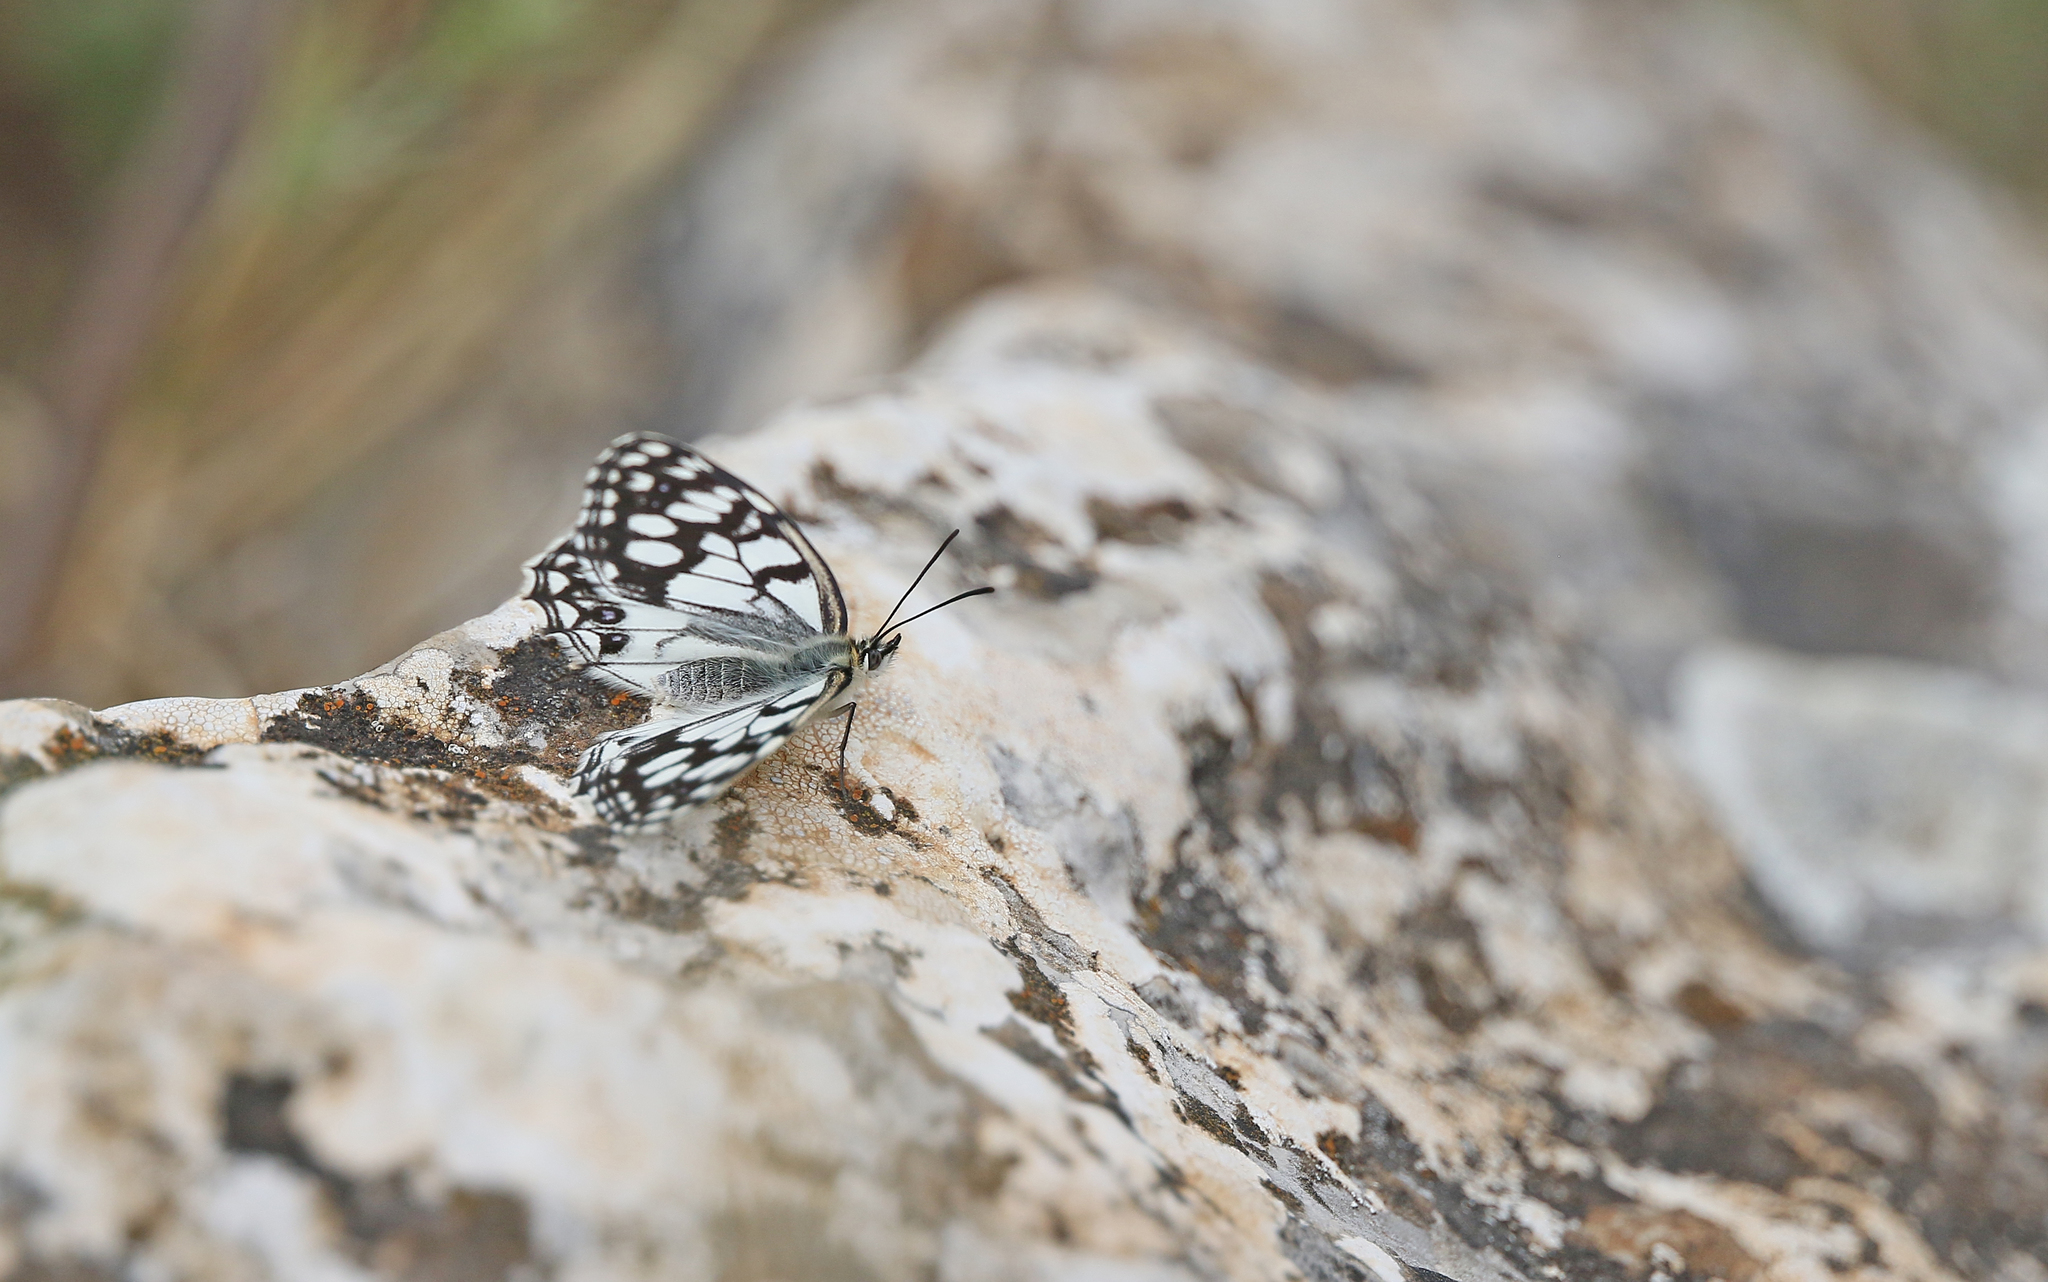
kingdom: Animalia
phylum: Arthropoda
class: Insecta
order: Lepidoptera
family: Nymphalidae
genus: Melanargia
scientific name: Melanargia ines
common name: Spanish marbled white
